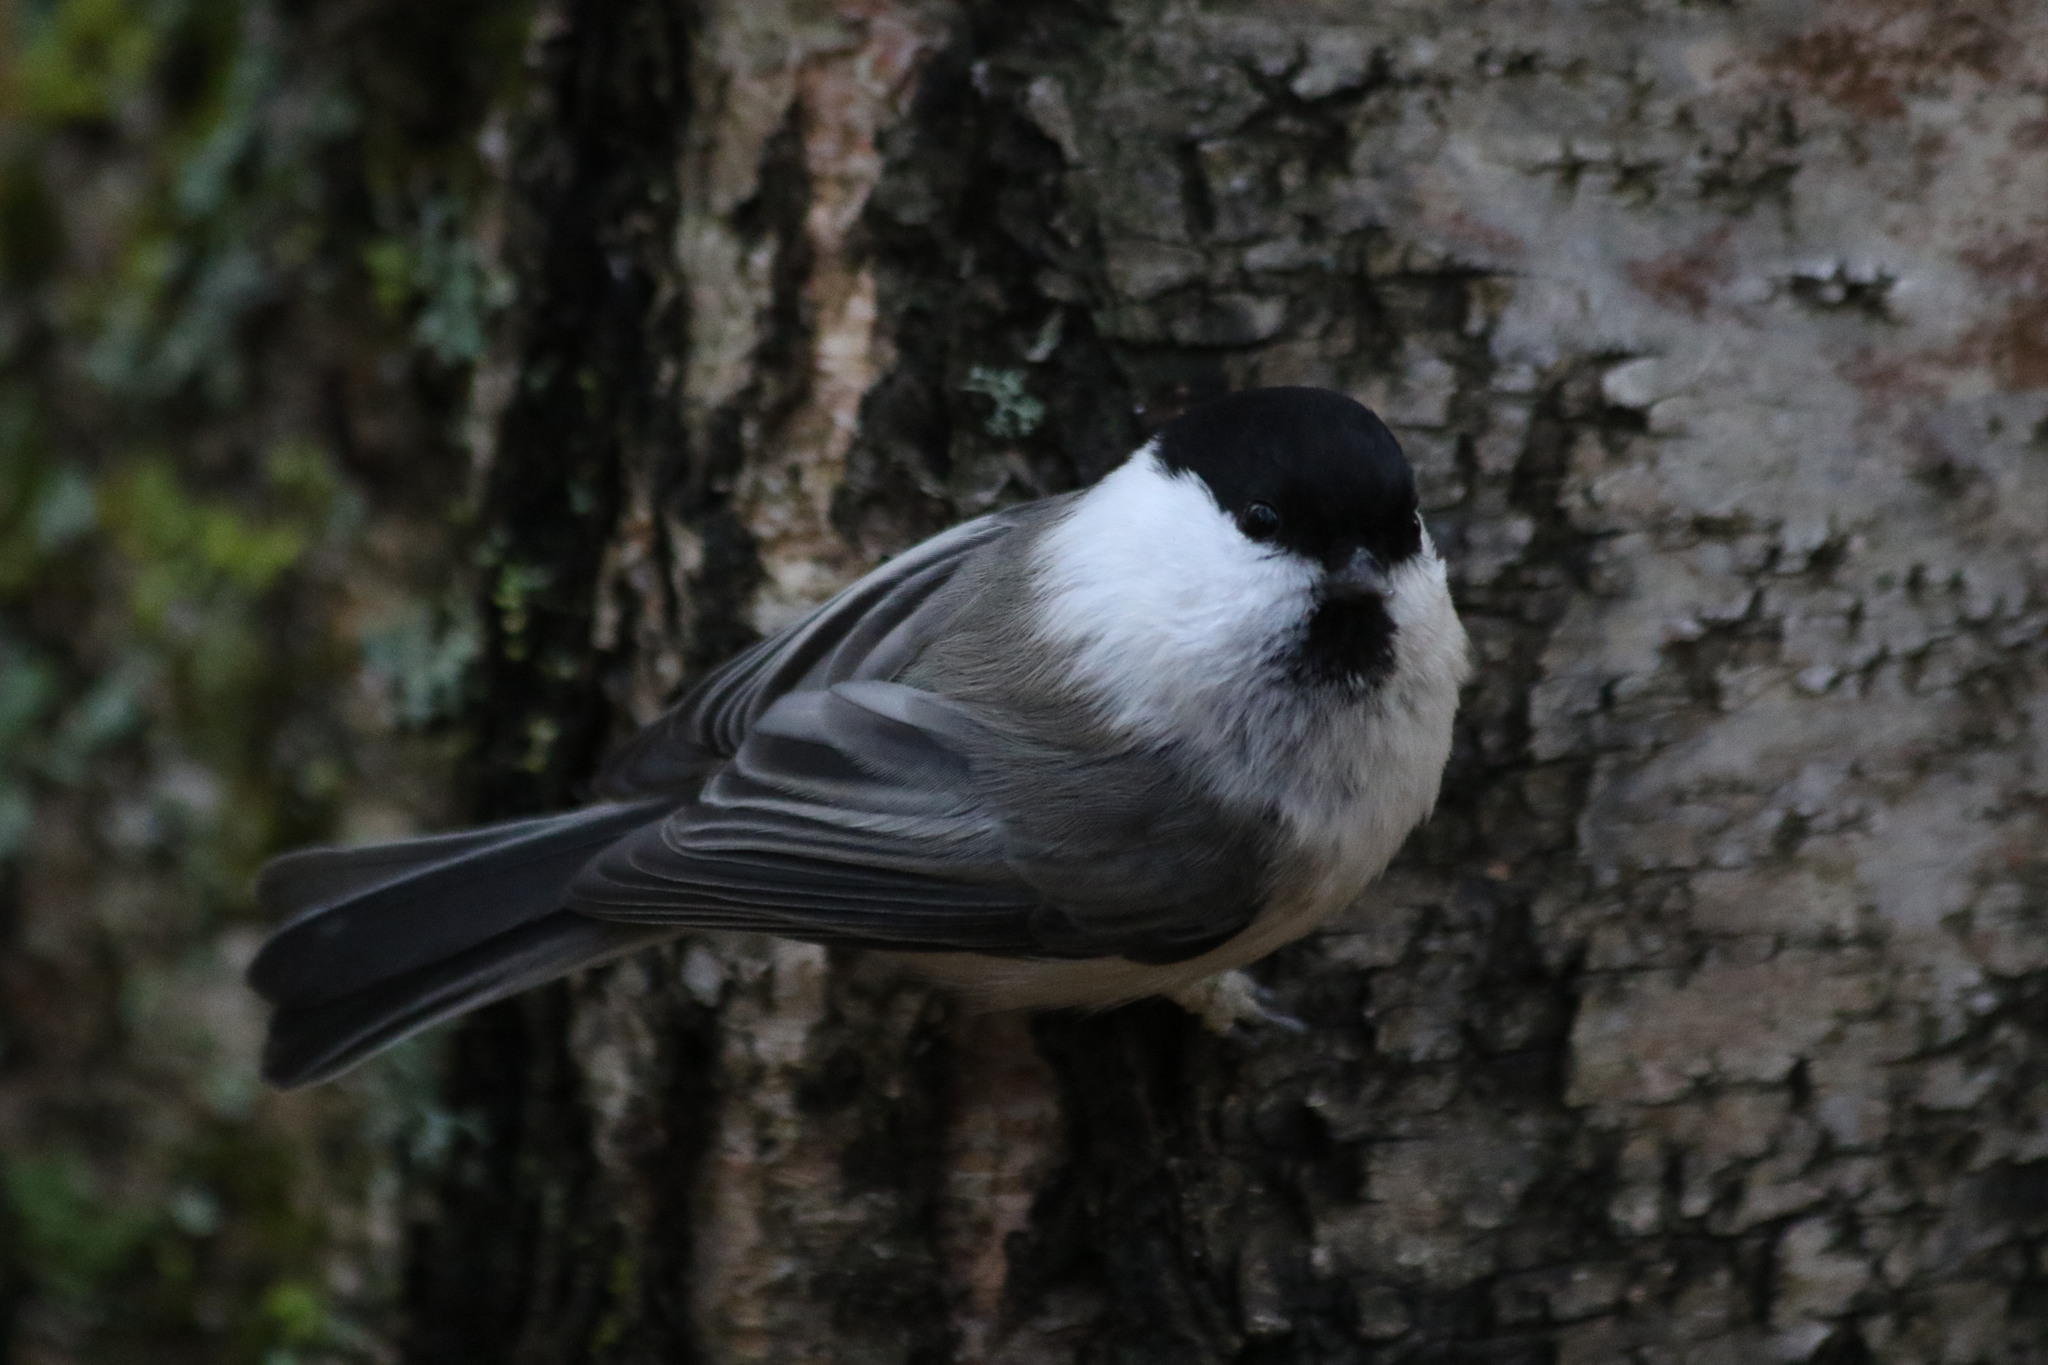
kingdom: Animalia
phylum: Chordata
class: Aves
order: Passeriformes
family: Paridae
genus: Poecile
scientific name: Poecile montanus
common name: Willow tit
